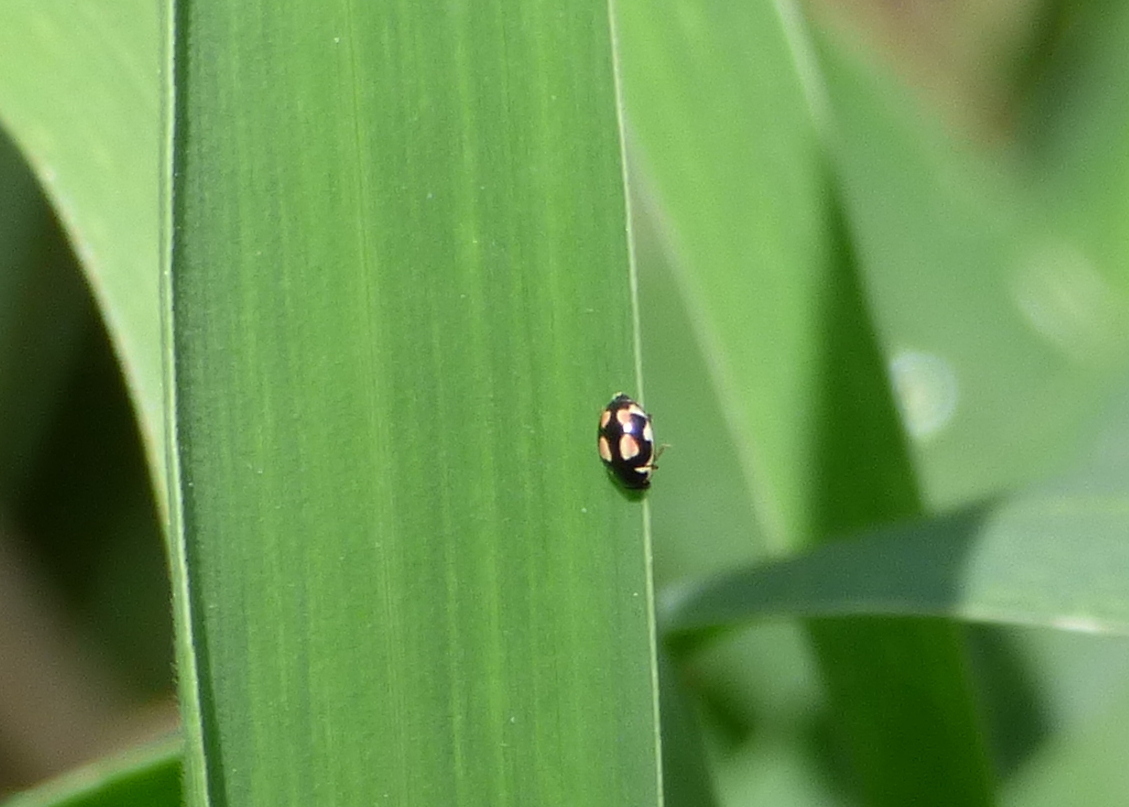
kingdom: Animalia
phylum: Arthropoda
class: Insecta
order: Coleoptera
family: Coccinellidae
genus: Hyperaspis
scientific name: Hyperaspis festiva
